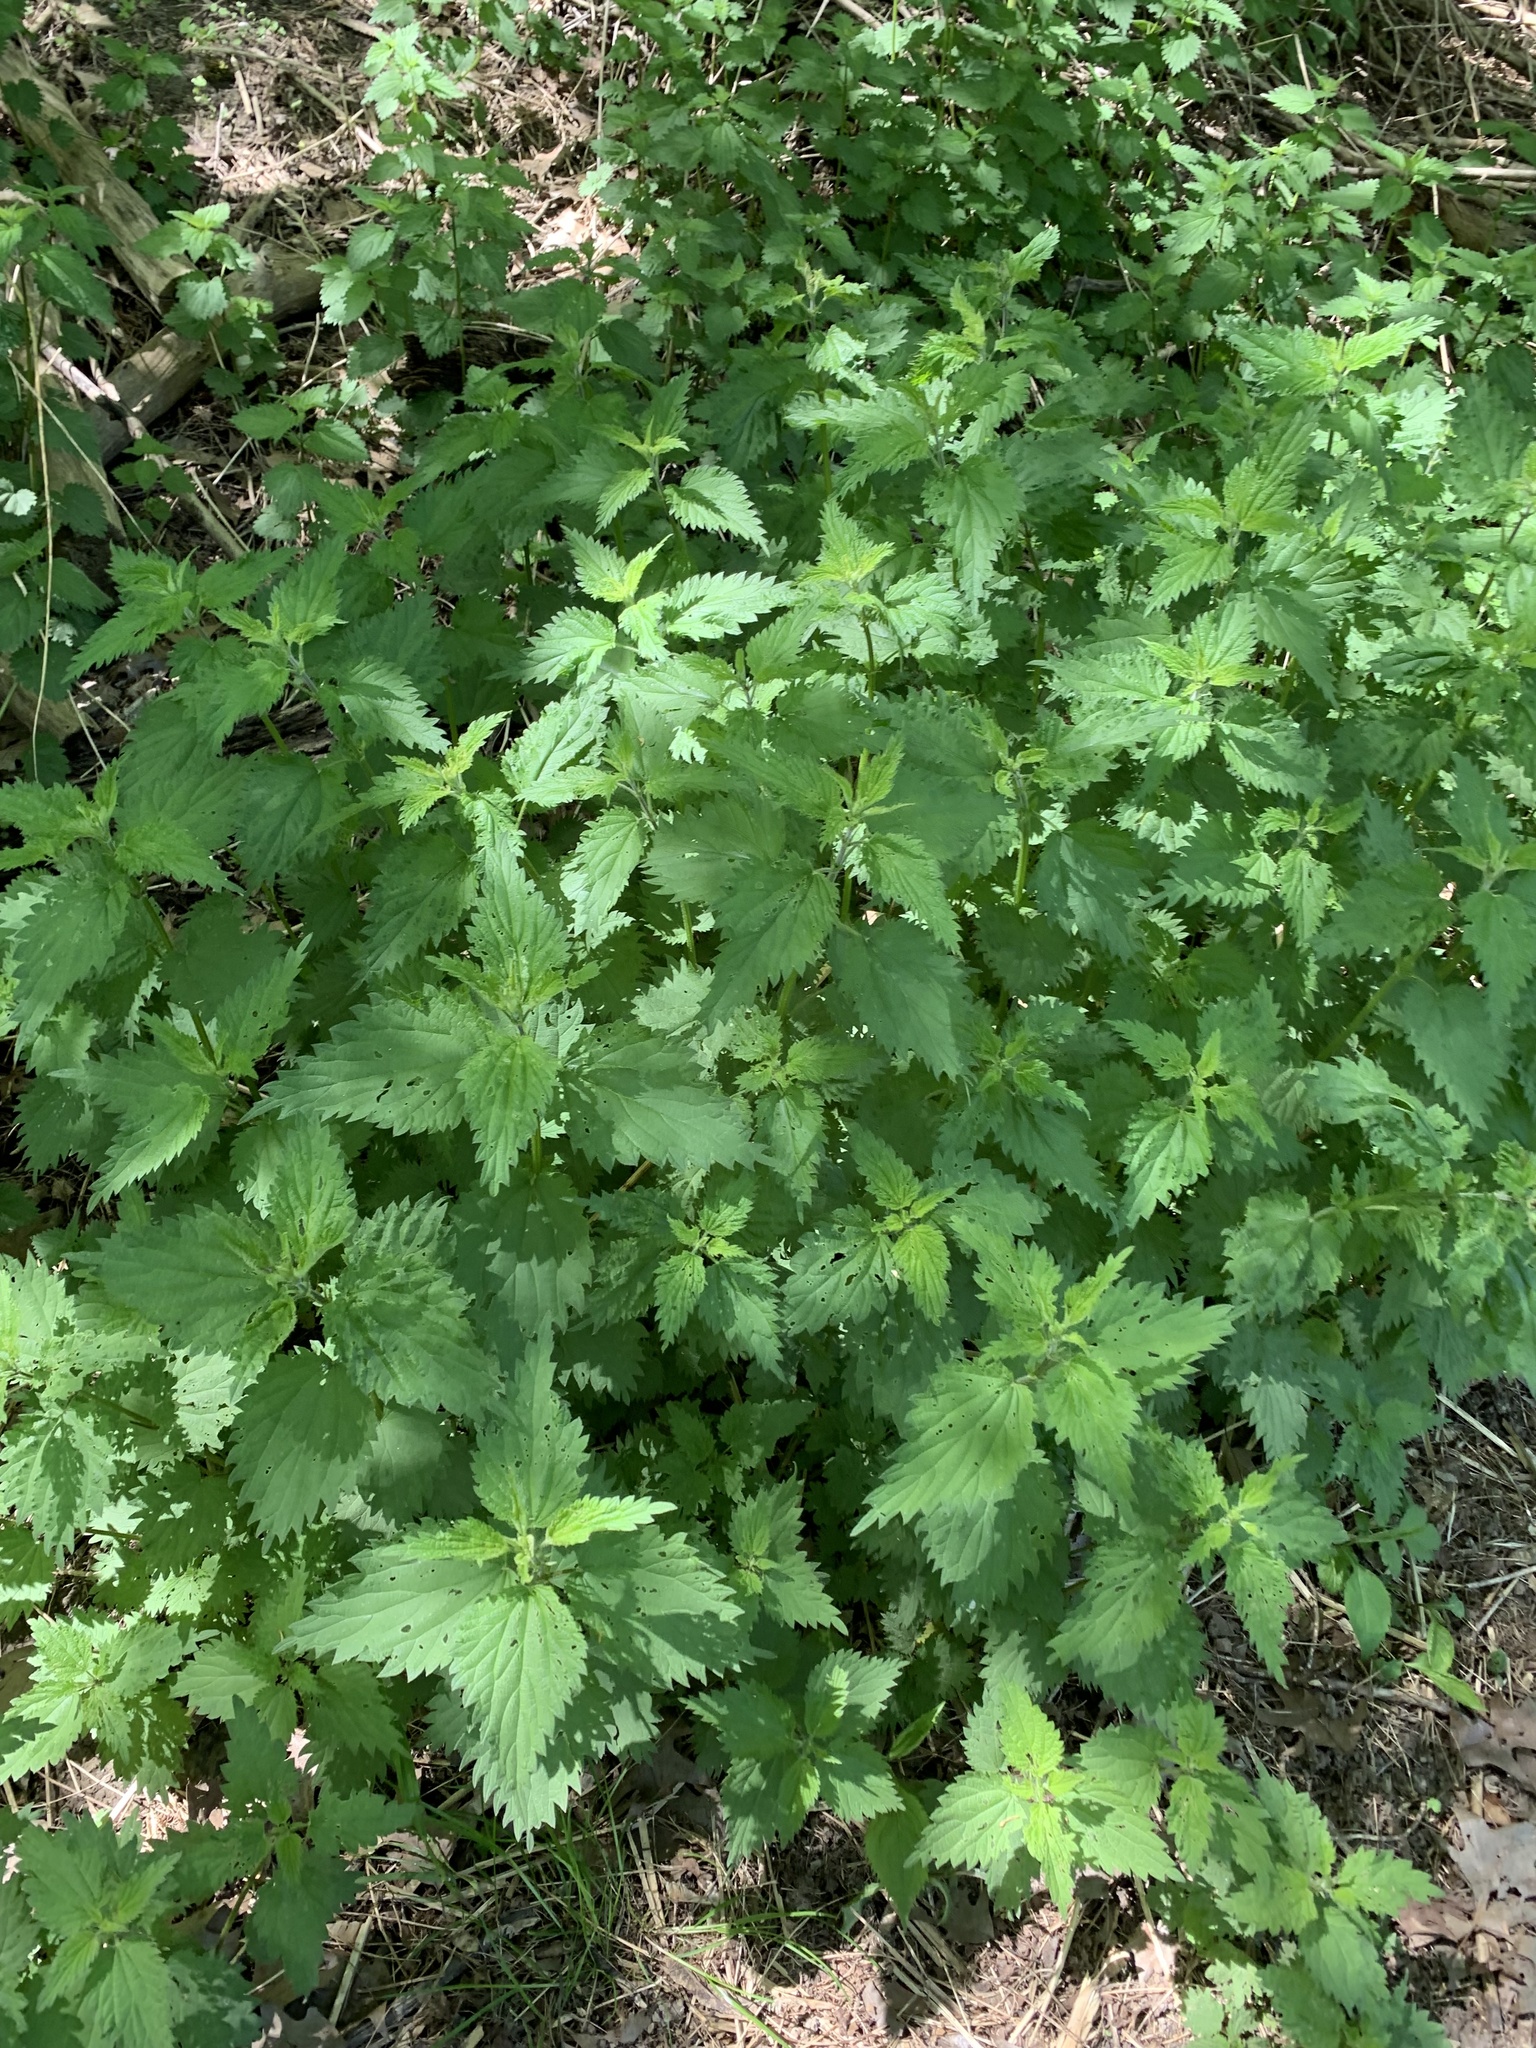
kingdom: Plantae
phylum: Tracheophyta
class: Magnoliopsida
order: Rosales
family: Urticaceae
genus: Urtica
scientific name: Urtica dioica
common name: Common nettle
